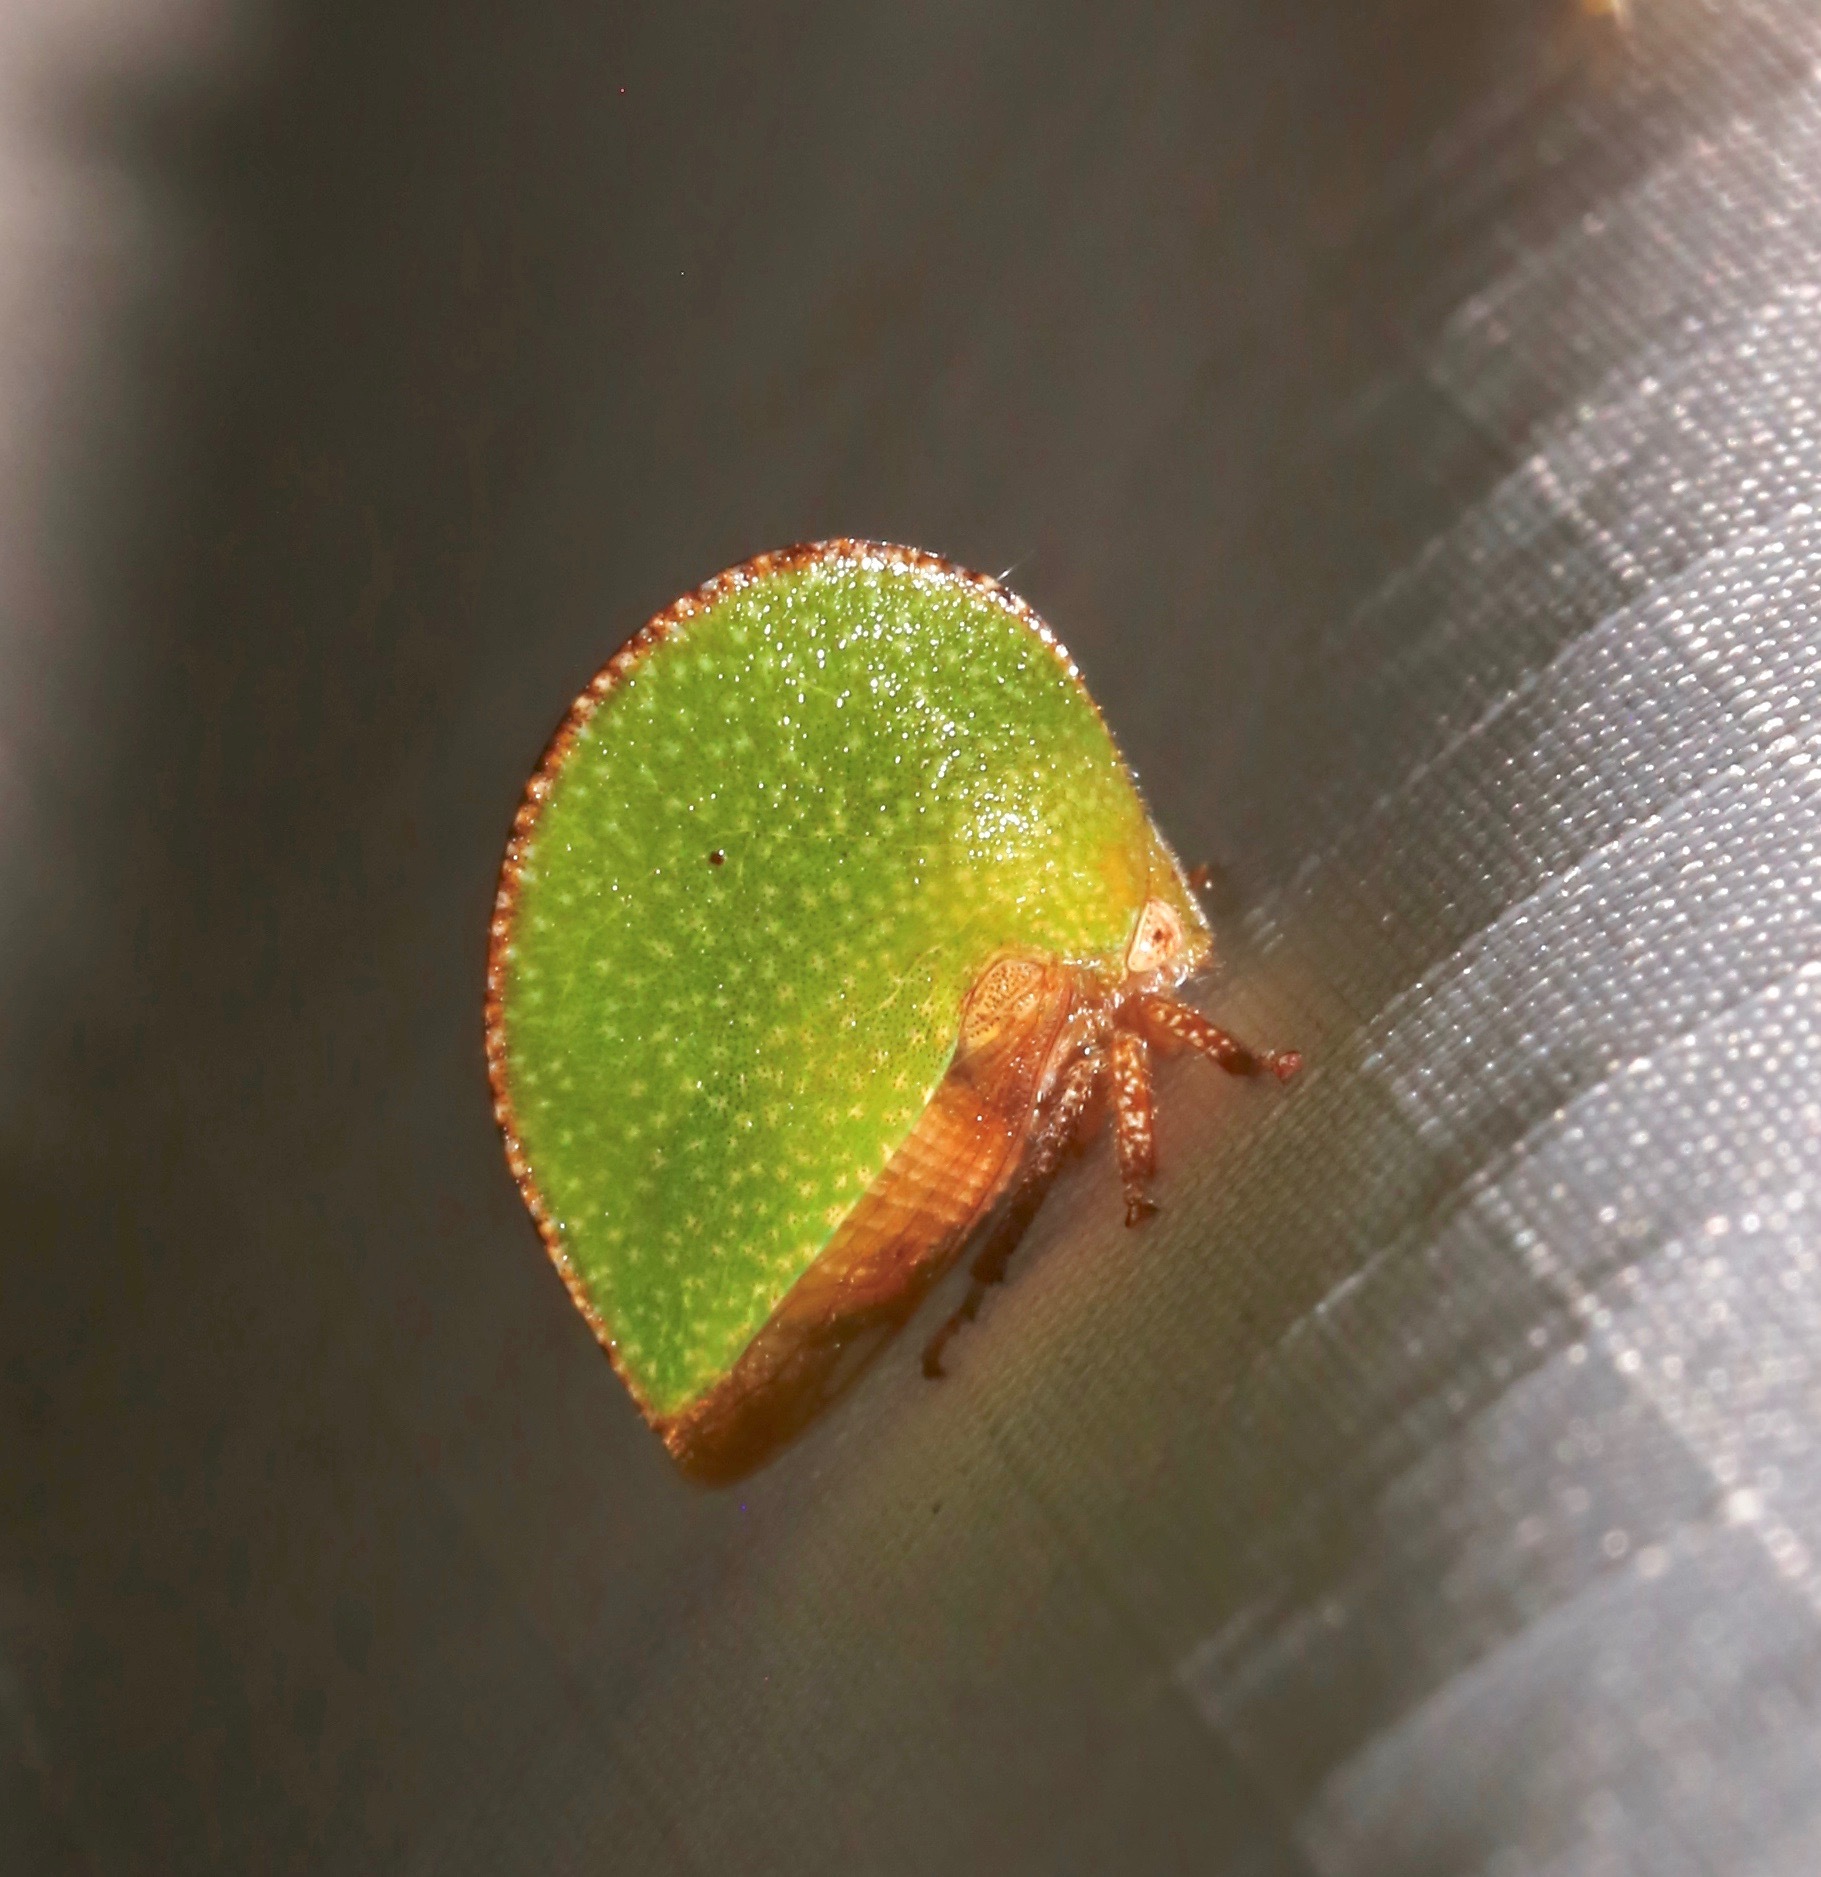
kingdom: Animalia
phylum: Arthropoda
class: Insecta
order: Hemiptera
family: Membracidae
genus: Archasia
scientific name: Archasia auriculata
